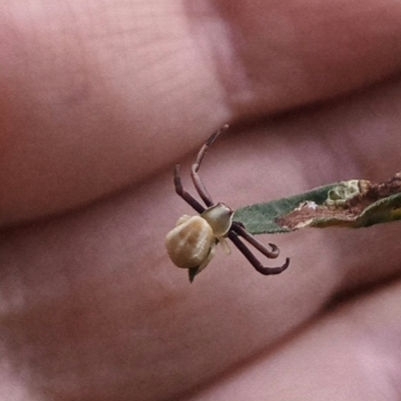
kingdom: Animalia
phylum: Arthropoda
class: Arachnida
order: Araneae
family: Thomisidae
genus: Misumenoides
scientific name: Misumenoides formosipes
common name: White-banded crab spider
